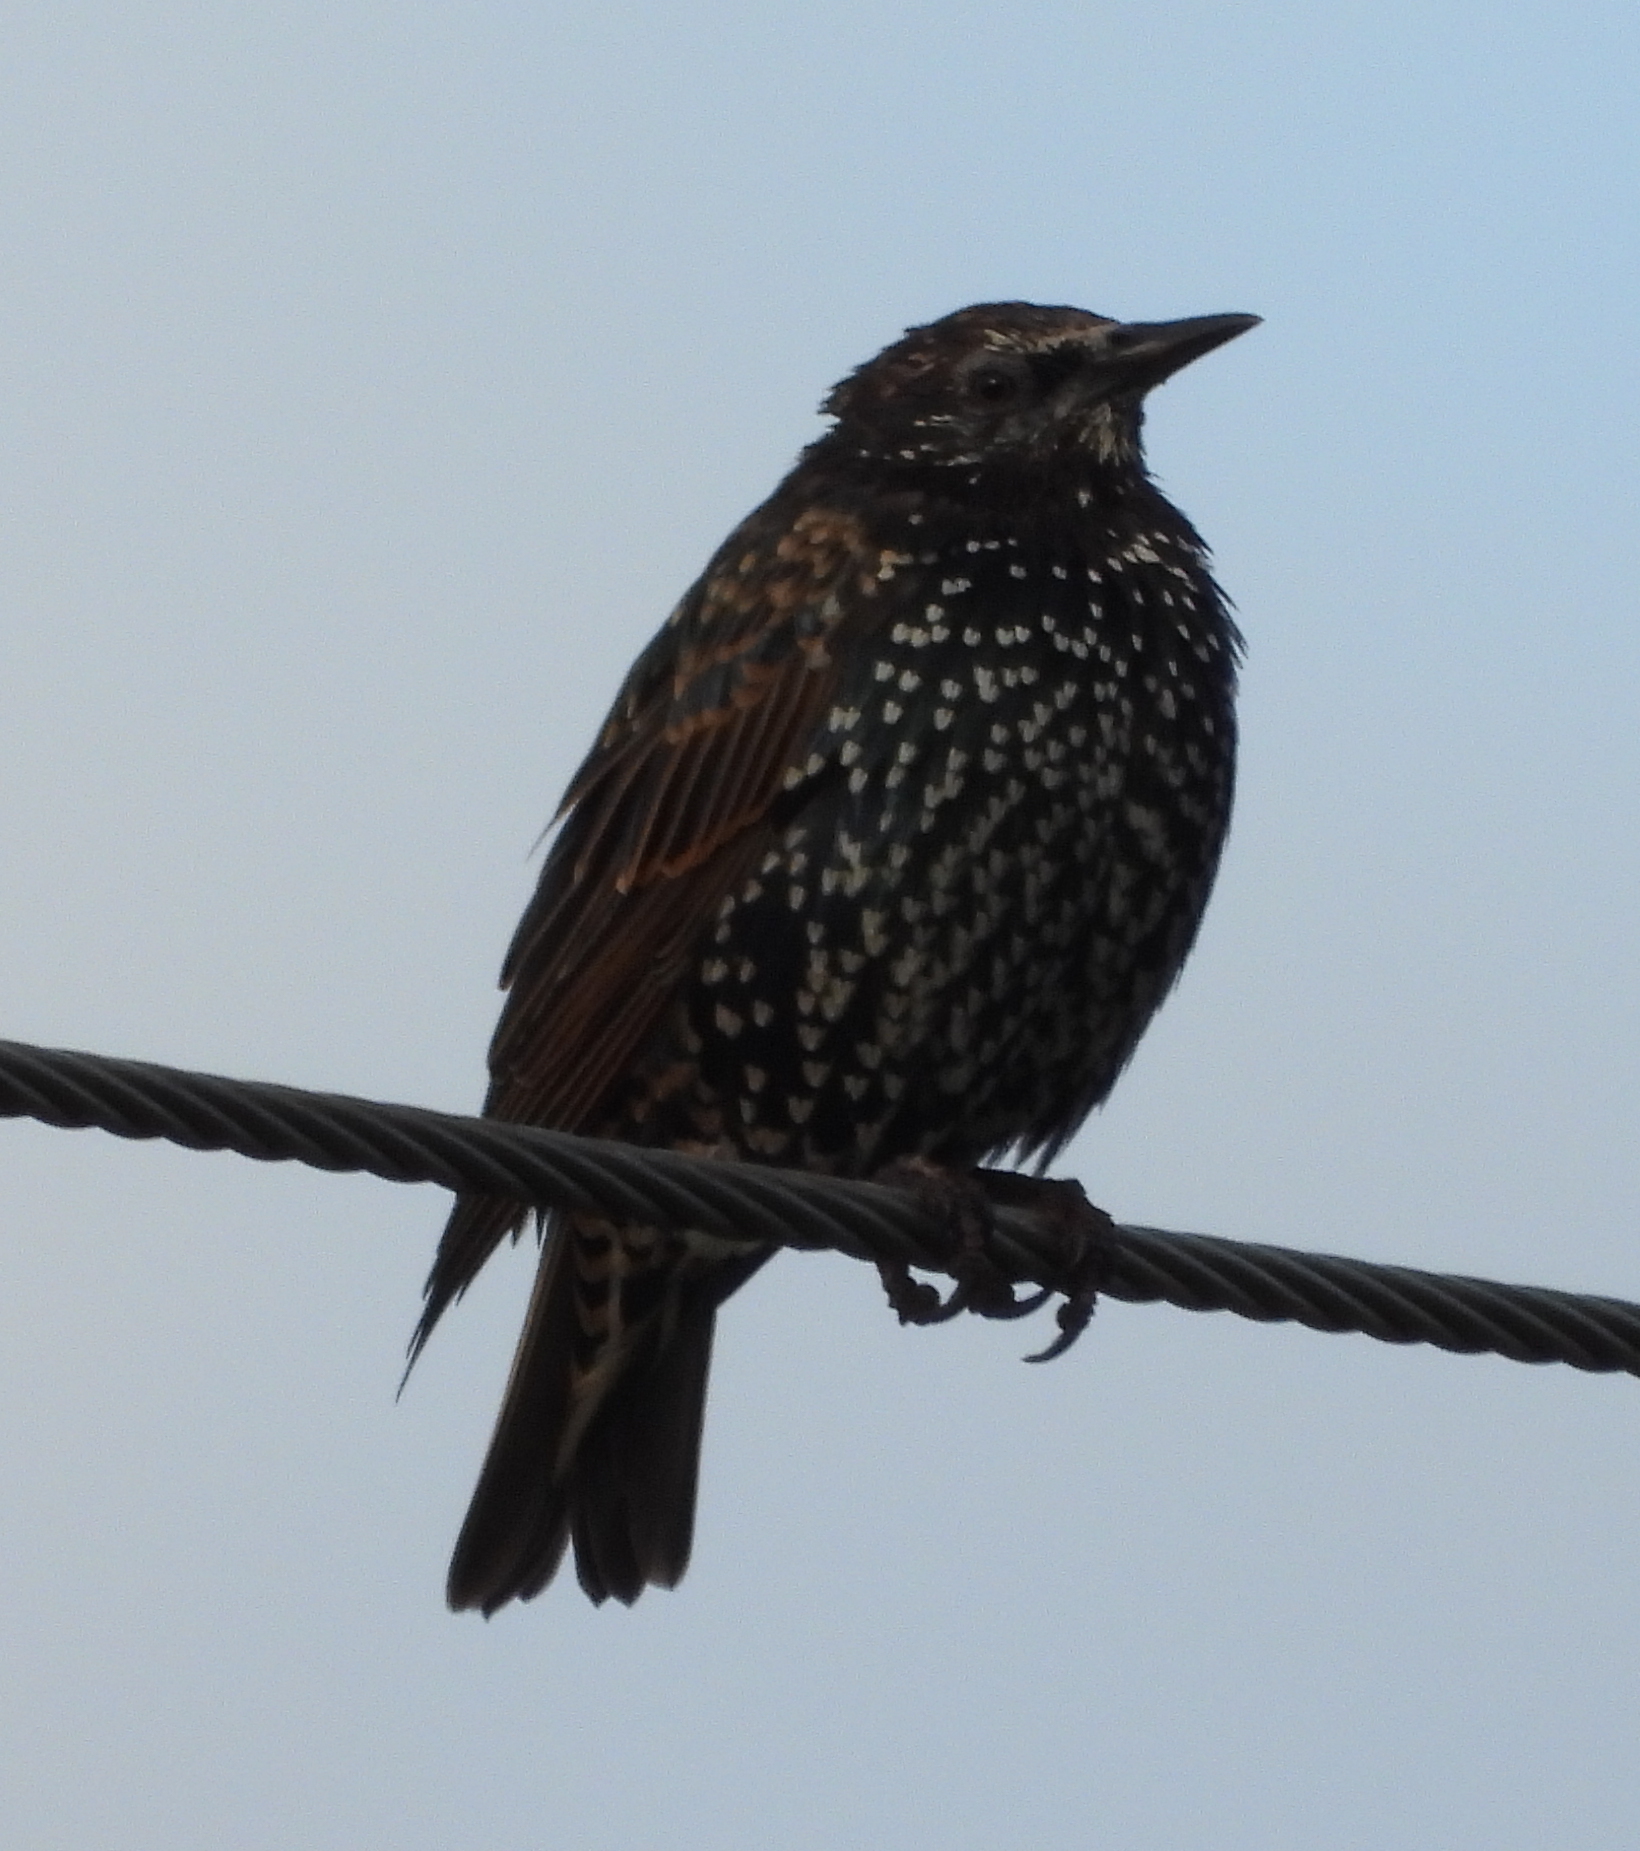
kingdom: Animalia
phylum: Chordata
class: Aves
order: Passeriformes
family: Sturnidae
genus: Sturnus
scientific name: Sturnus vulgaris
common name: Common starling
